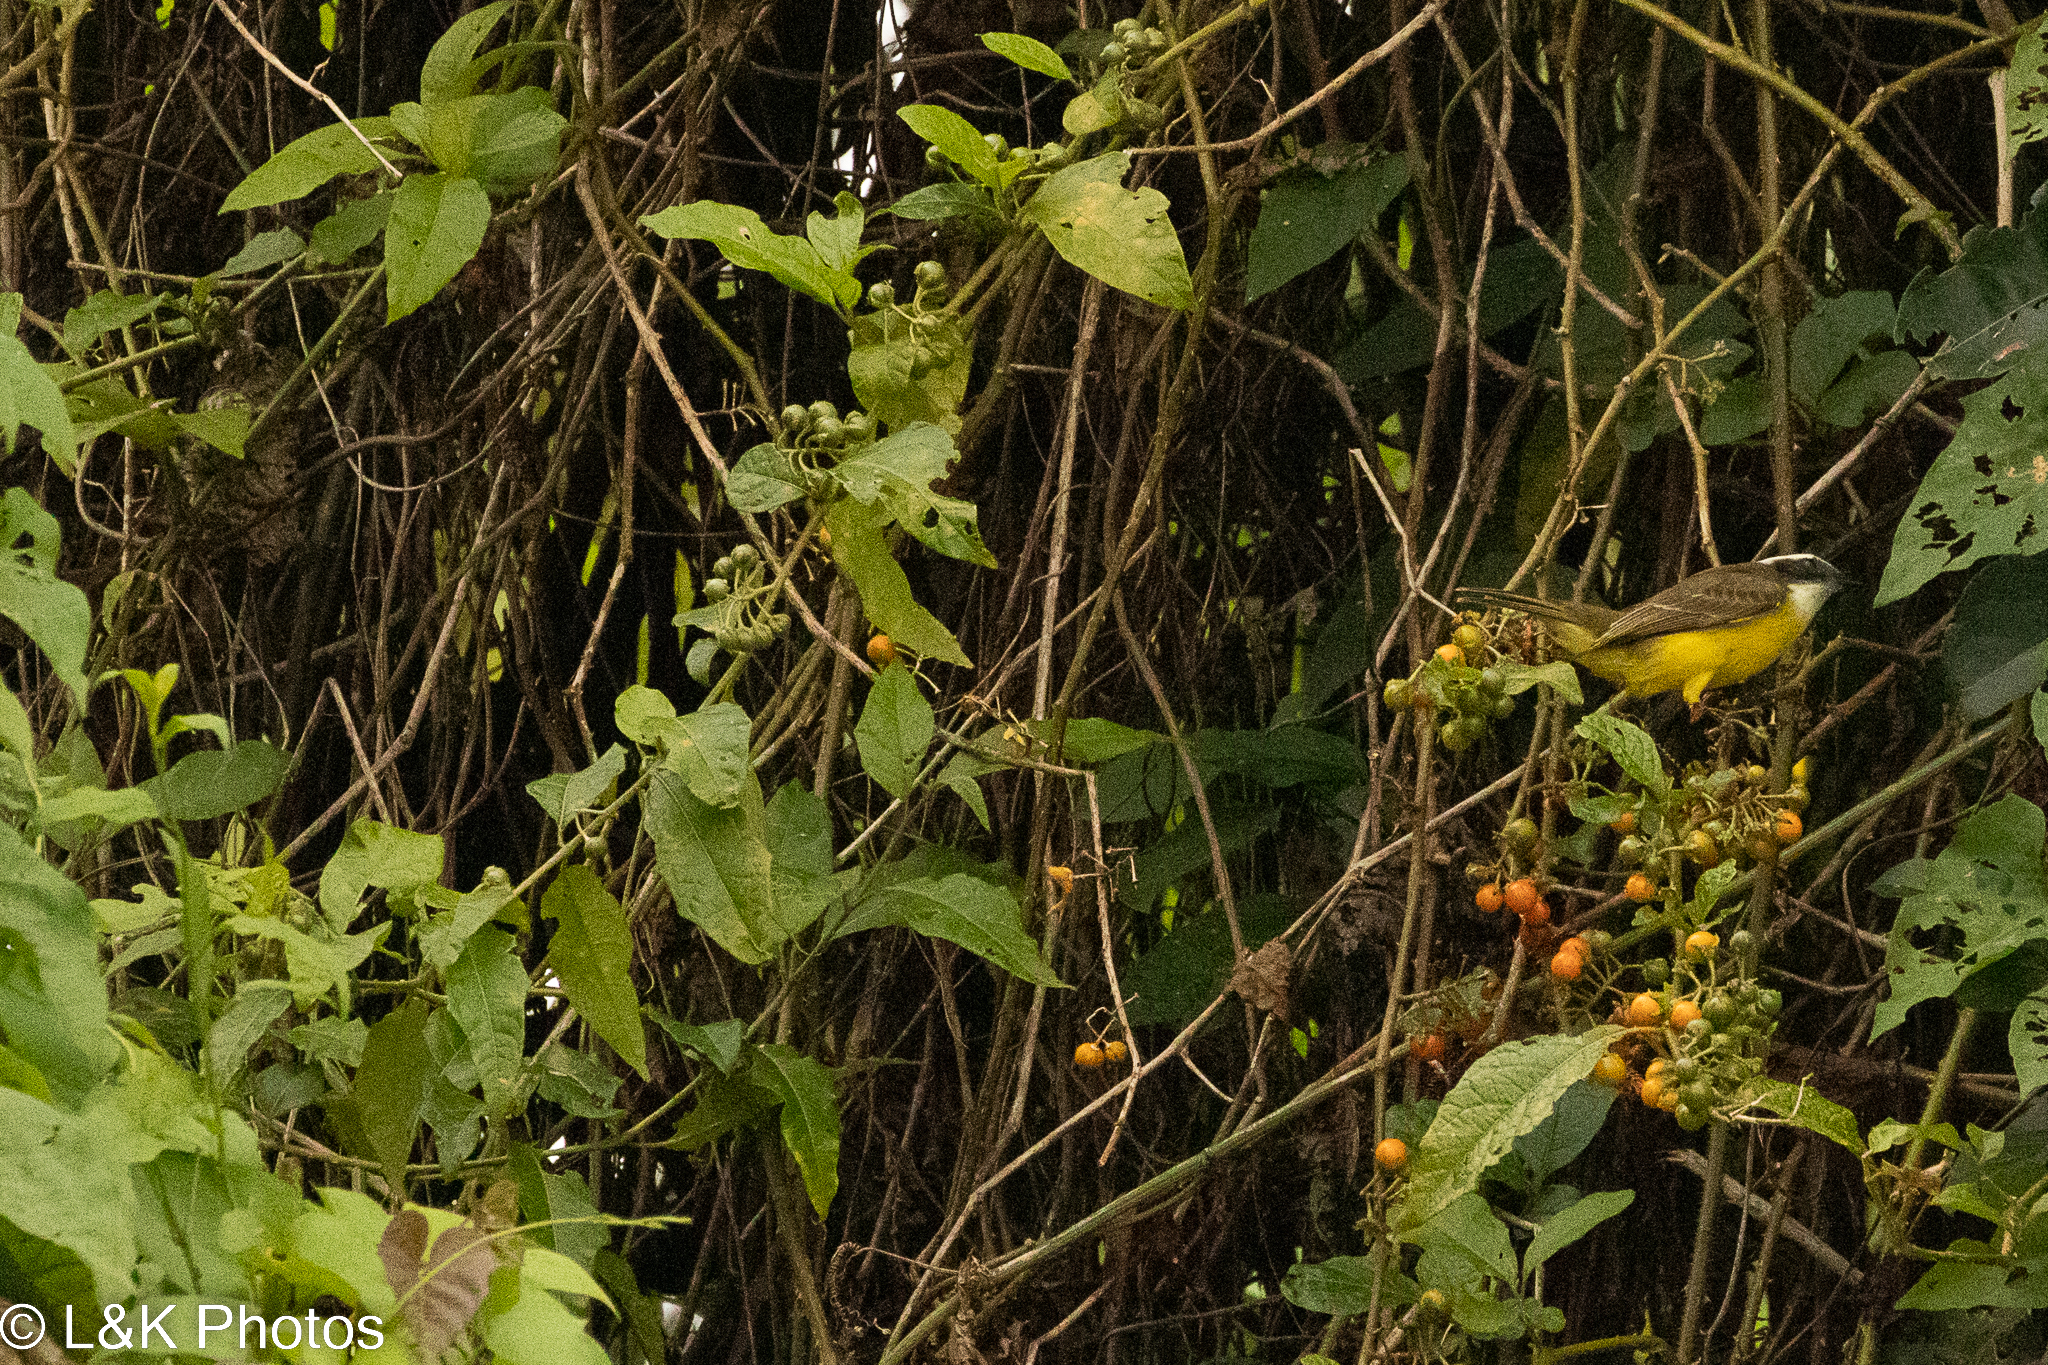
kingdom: Animalia
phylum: Chordata
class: Aves
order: Passeriformes
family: Tyrannidae
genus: Myiozetetes
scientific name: Myiozetetes similis
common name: Social flycatcher
